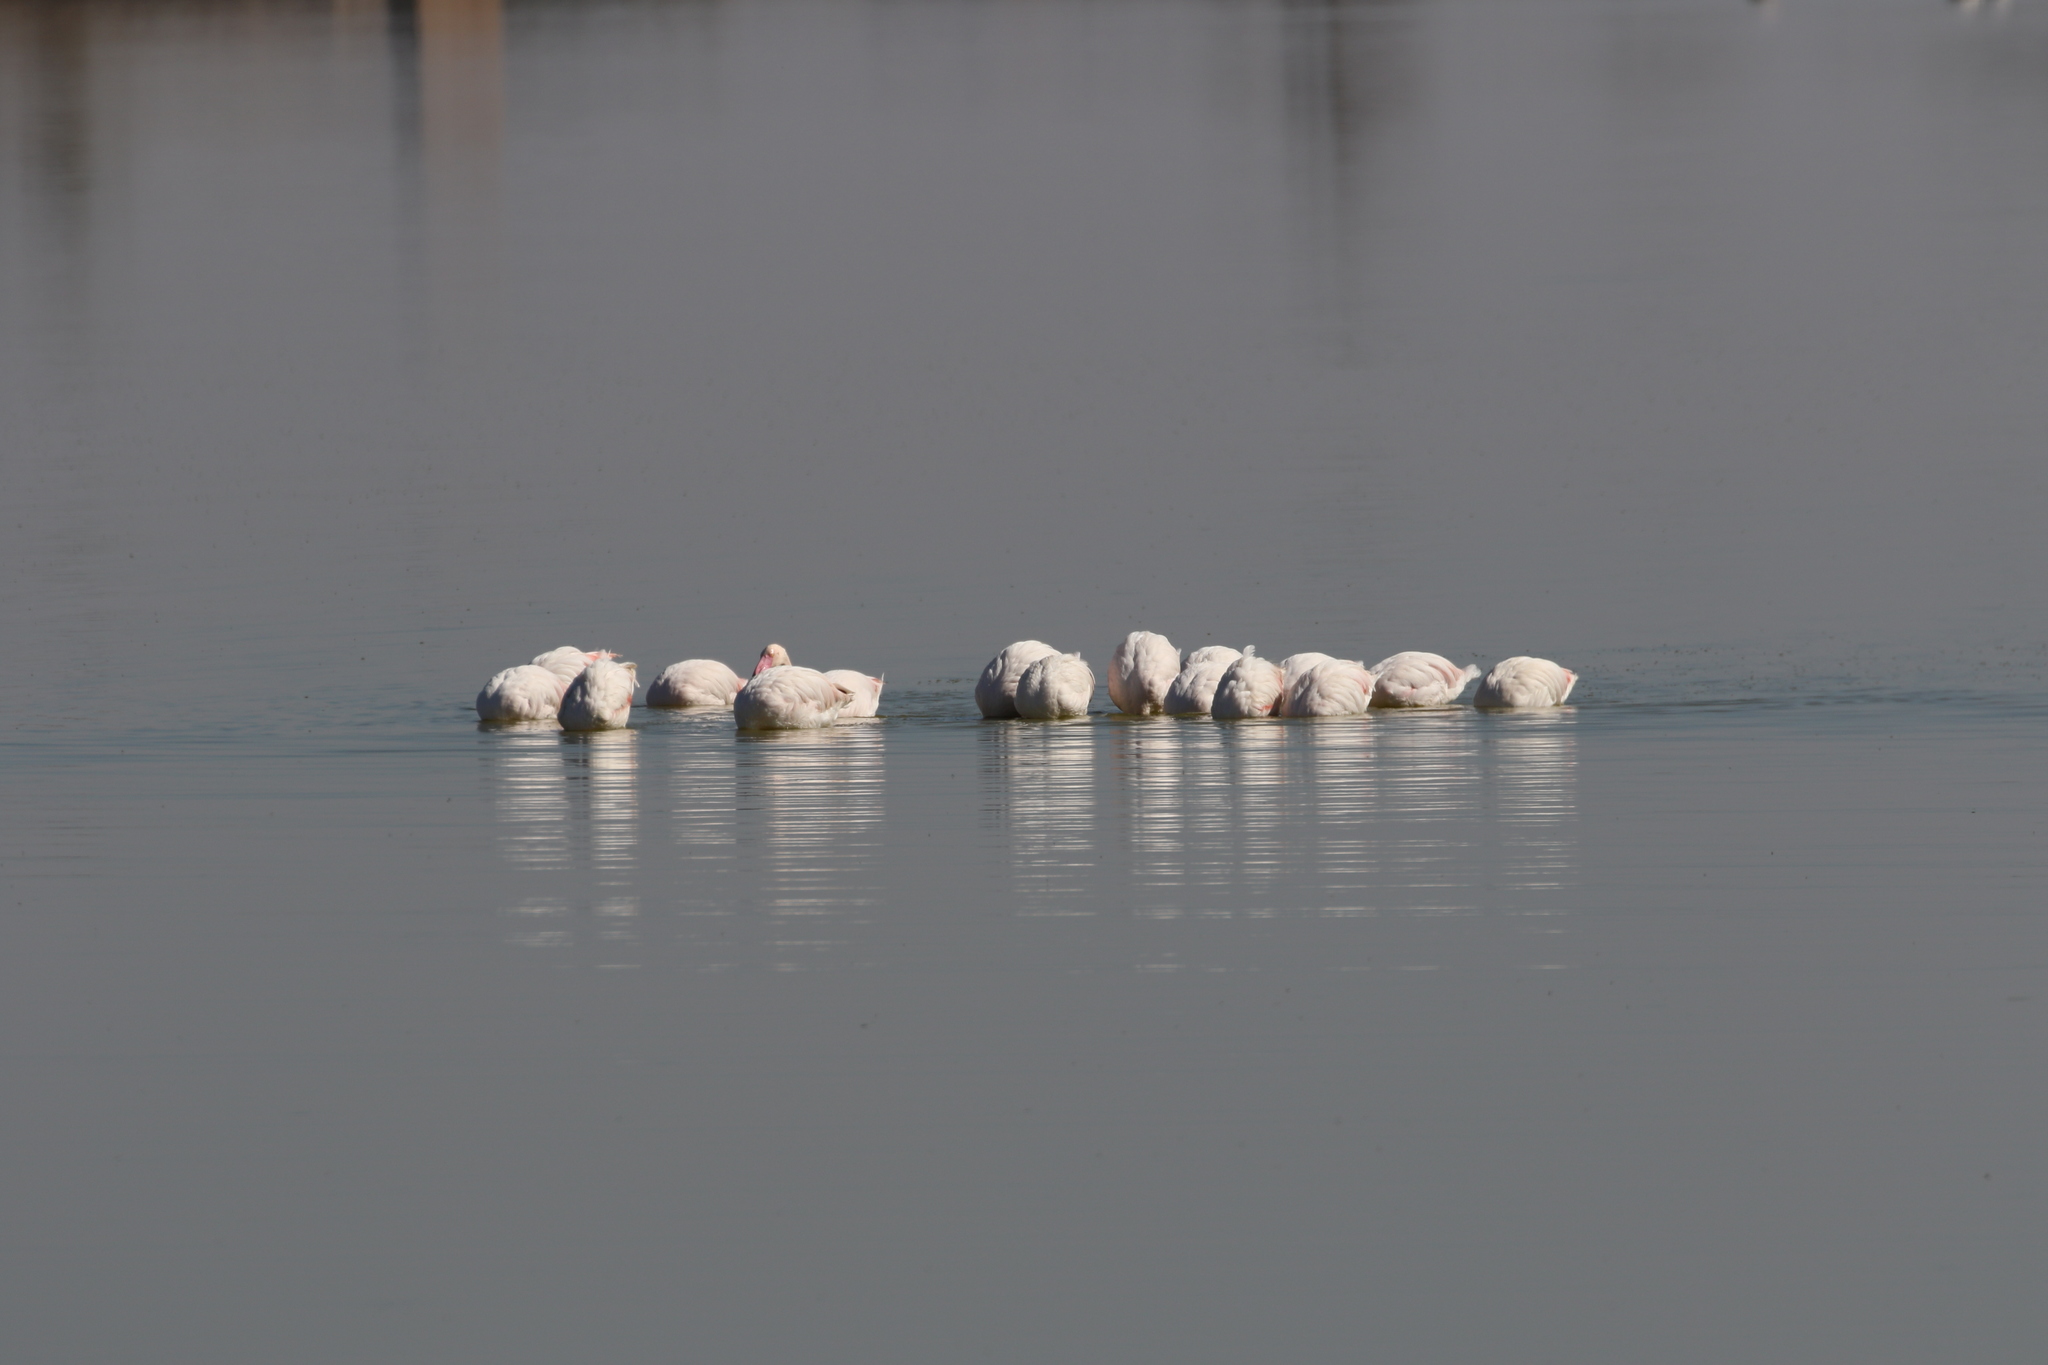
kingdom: Animalia
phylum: Chordata
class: Aves
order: Phoenicopteriformes
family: Phoenicopteridae
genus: Phoenicopterus
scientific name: Phoenicopterus roseus
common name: Greater flamingo
